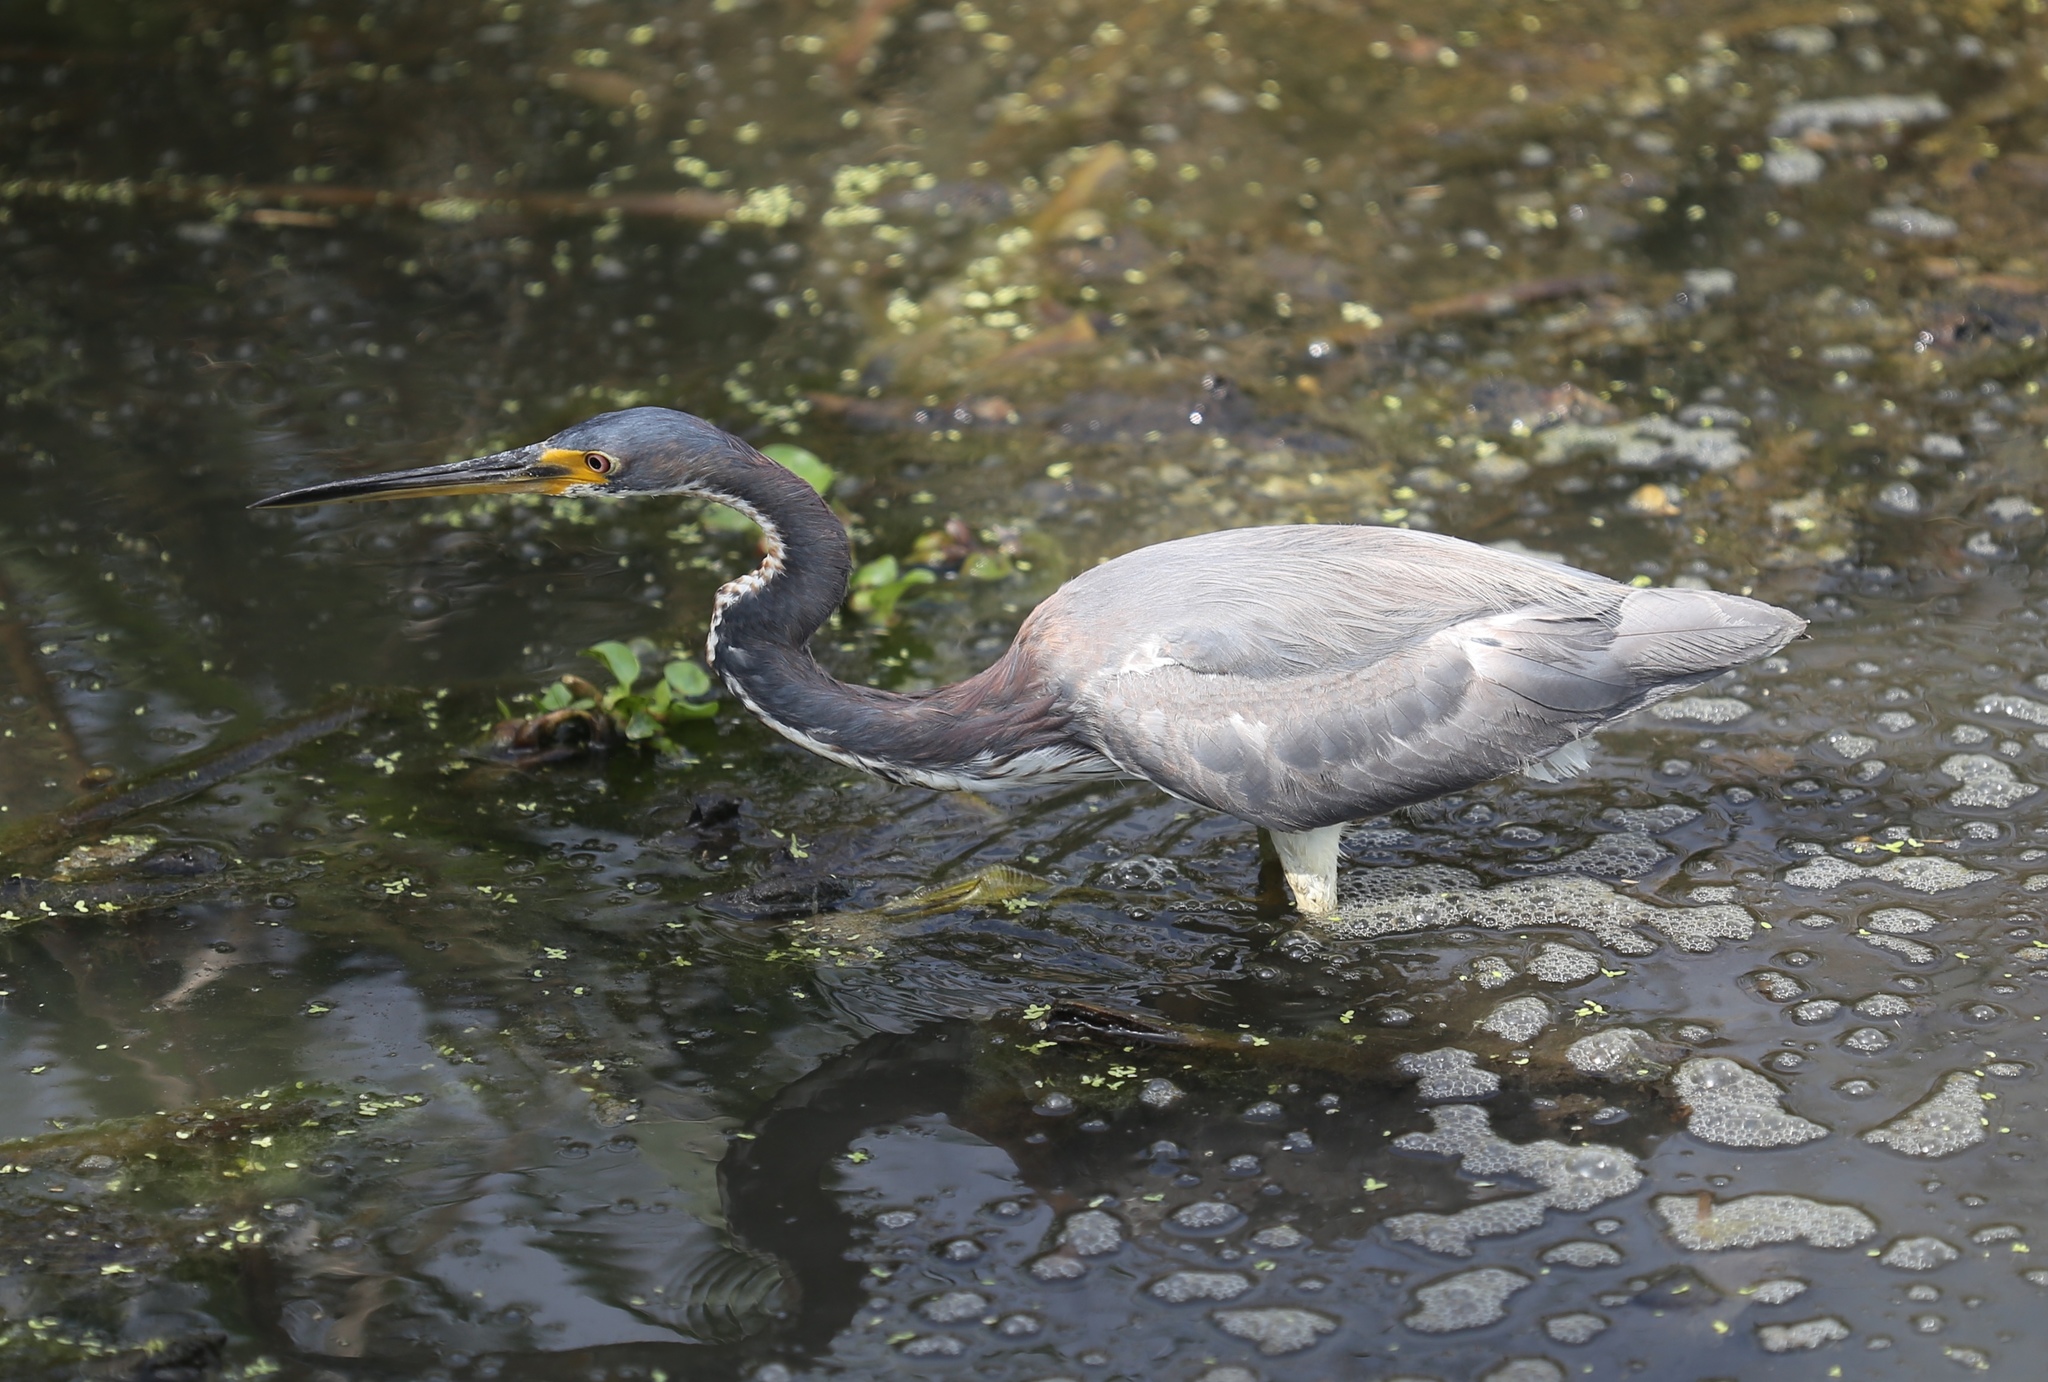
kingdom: Animalia
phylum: Chordata
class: Aves
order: Pelecaniformes
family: Ardeidae
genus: Egretta
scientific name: Egretta tricolor
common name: Tricolored heron
